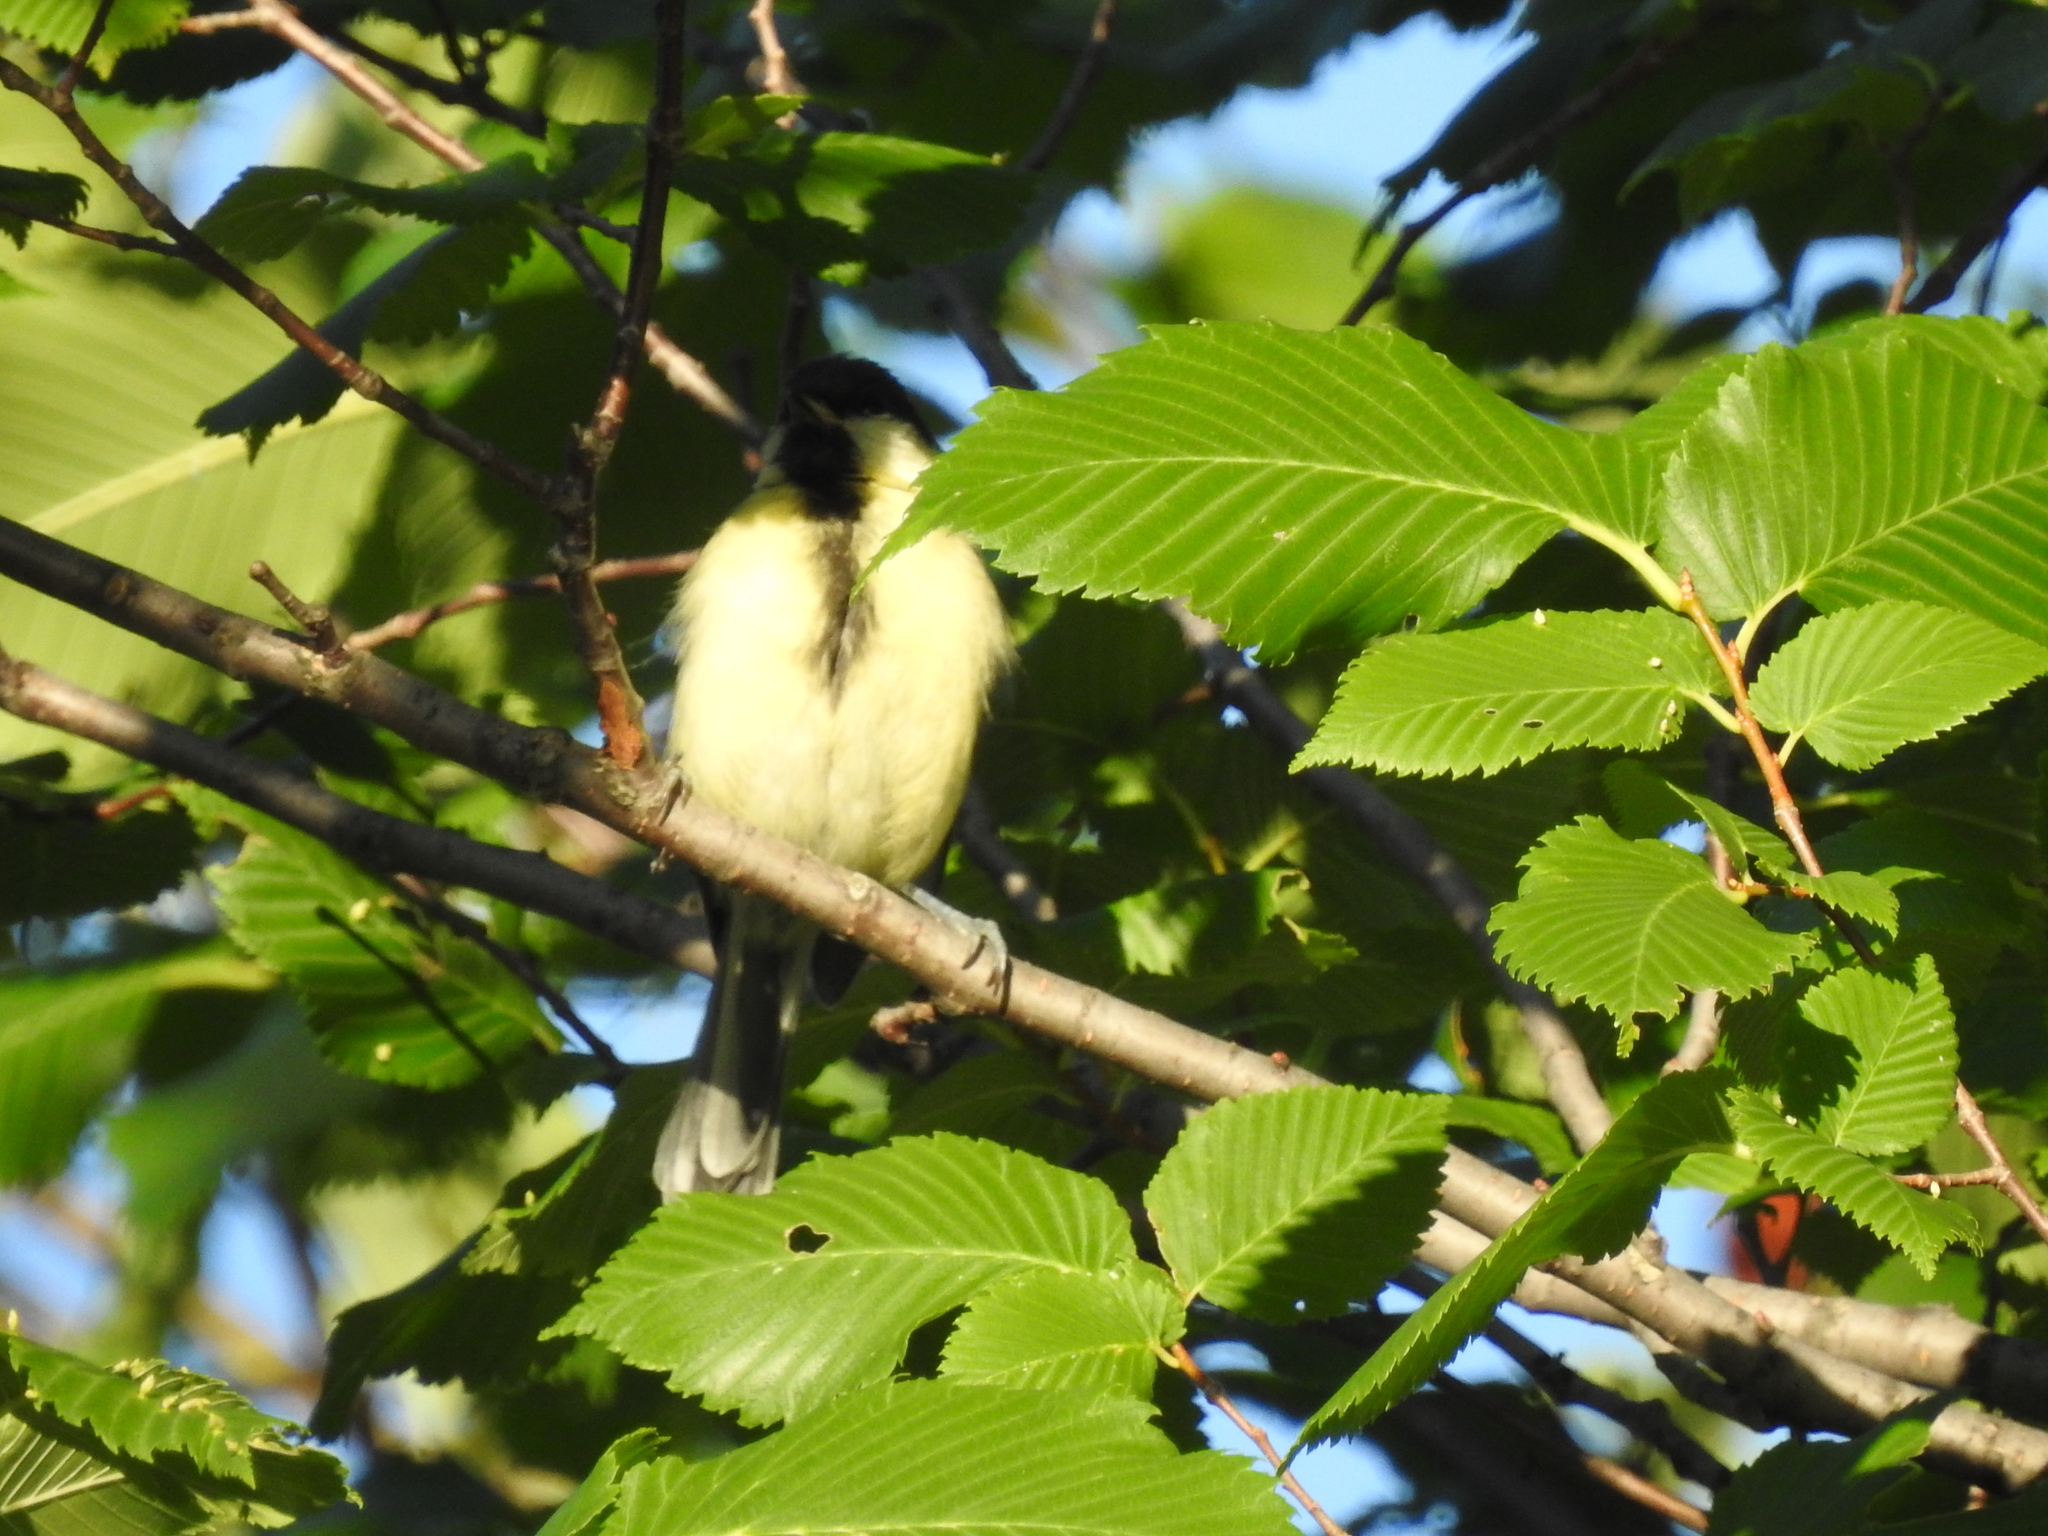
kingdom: Animalia
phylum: Chordata
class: Aves
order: Passeriformes
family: Paridae
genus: Parus
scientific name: Parus major
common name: Great tit
